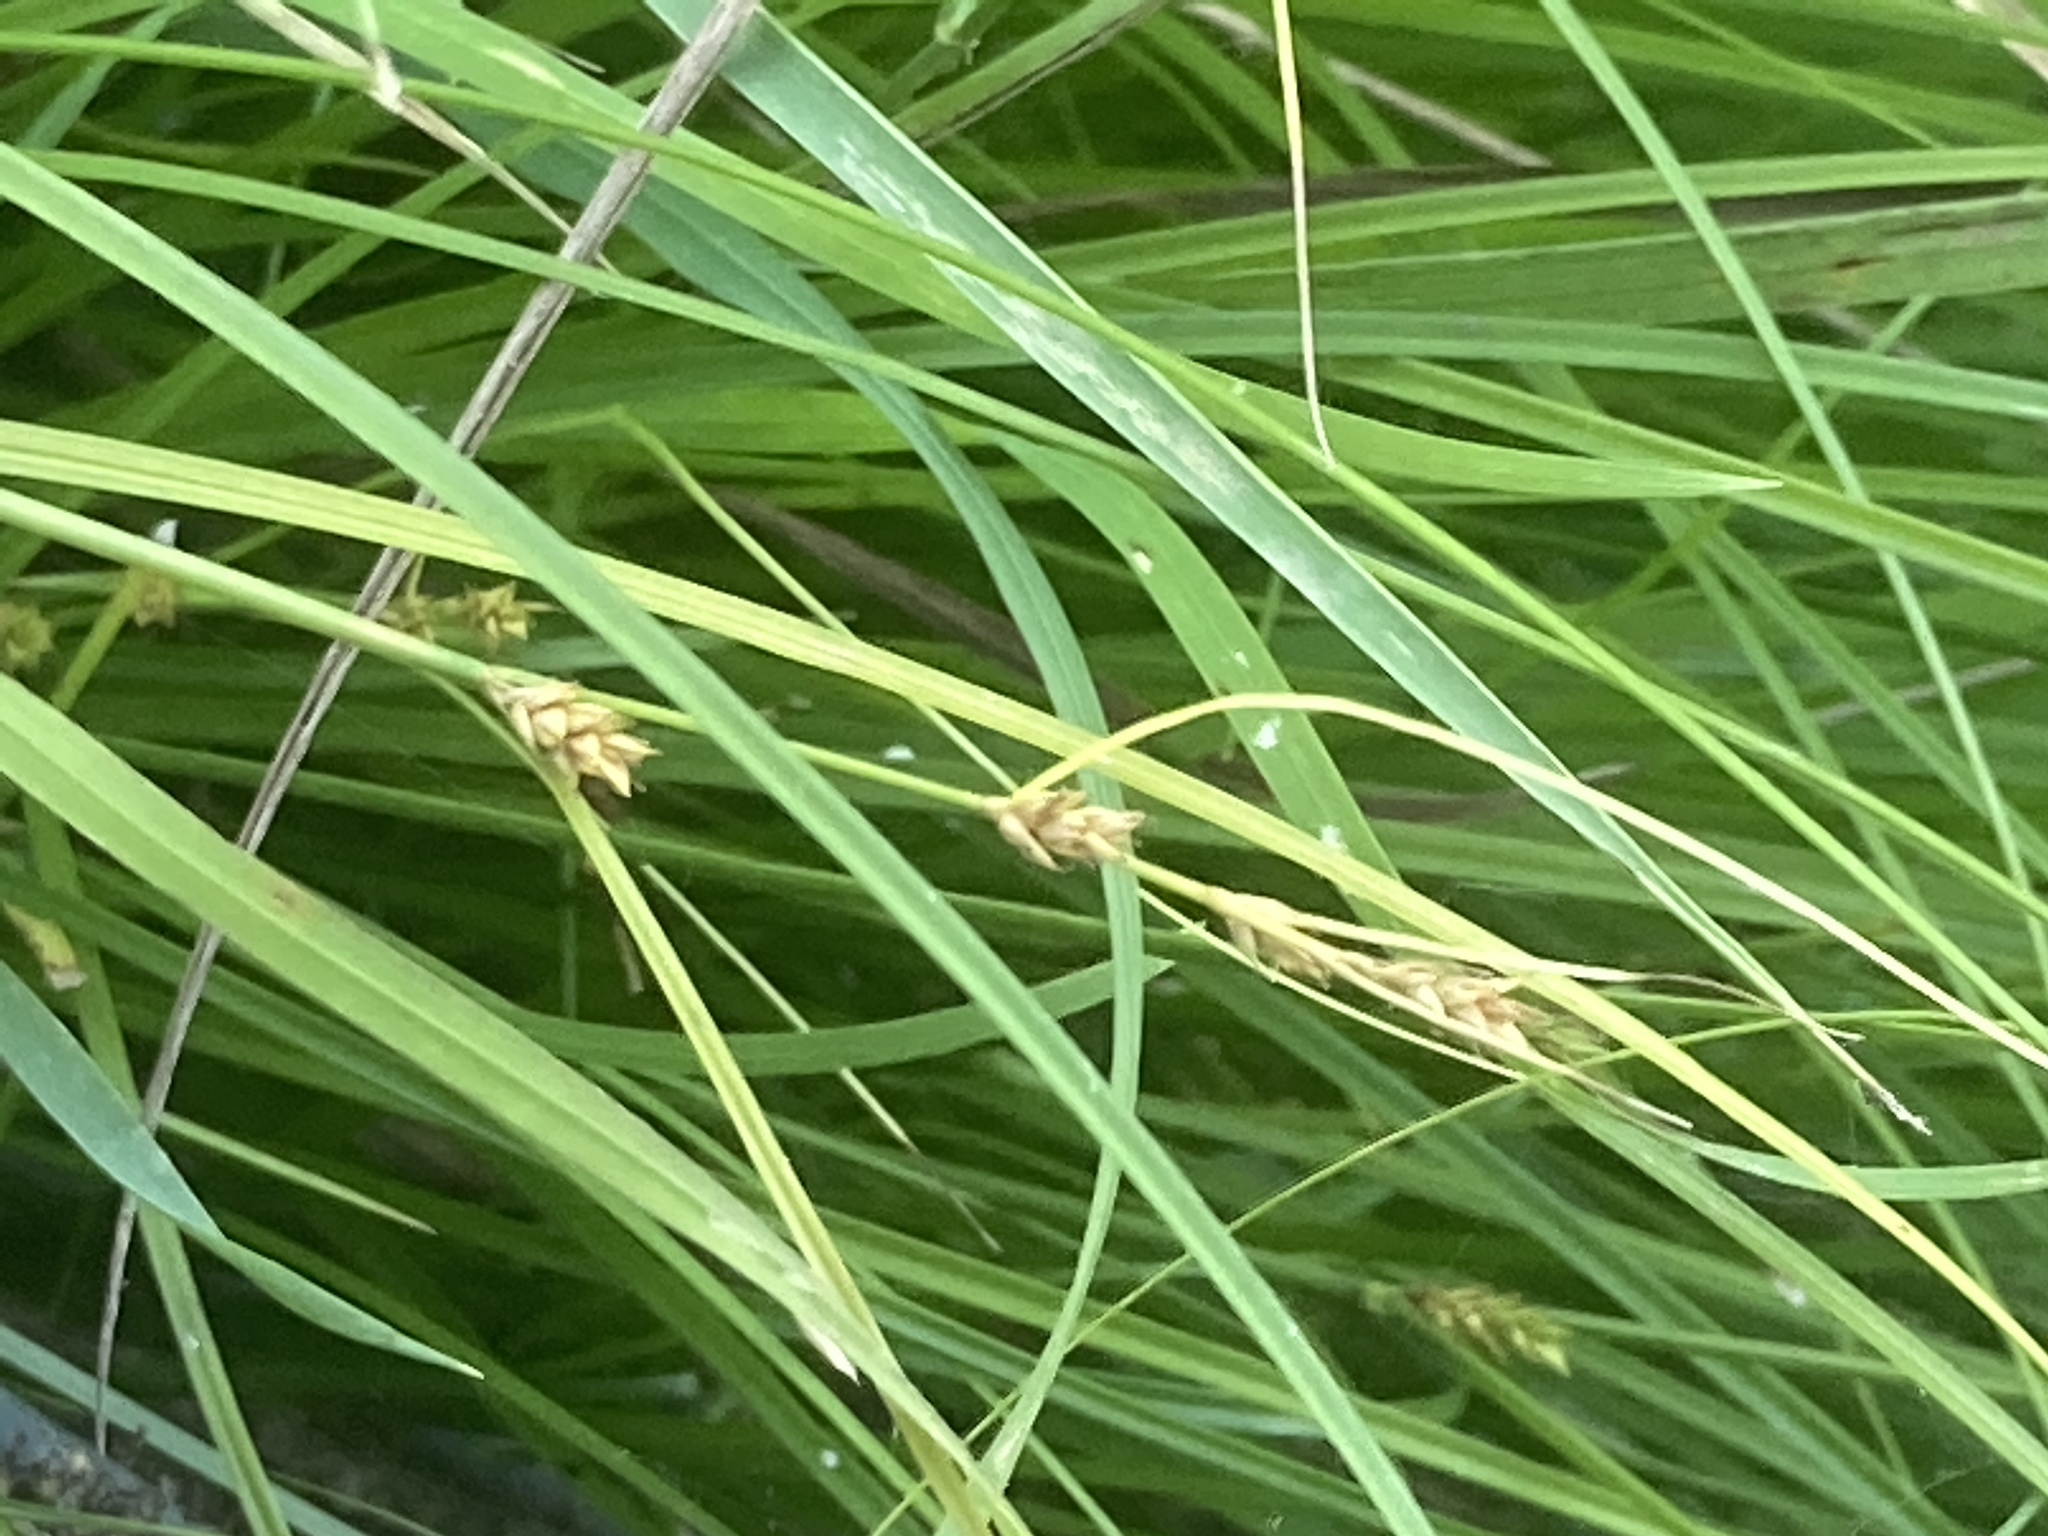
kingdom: Plantae
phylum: Tracheophyta
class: Liliopsida
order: Poales
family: Cyperaceae
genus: Carex
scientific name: Carex remota
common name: Remote sedge
